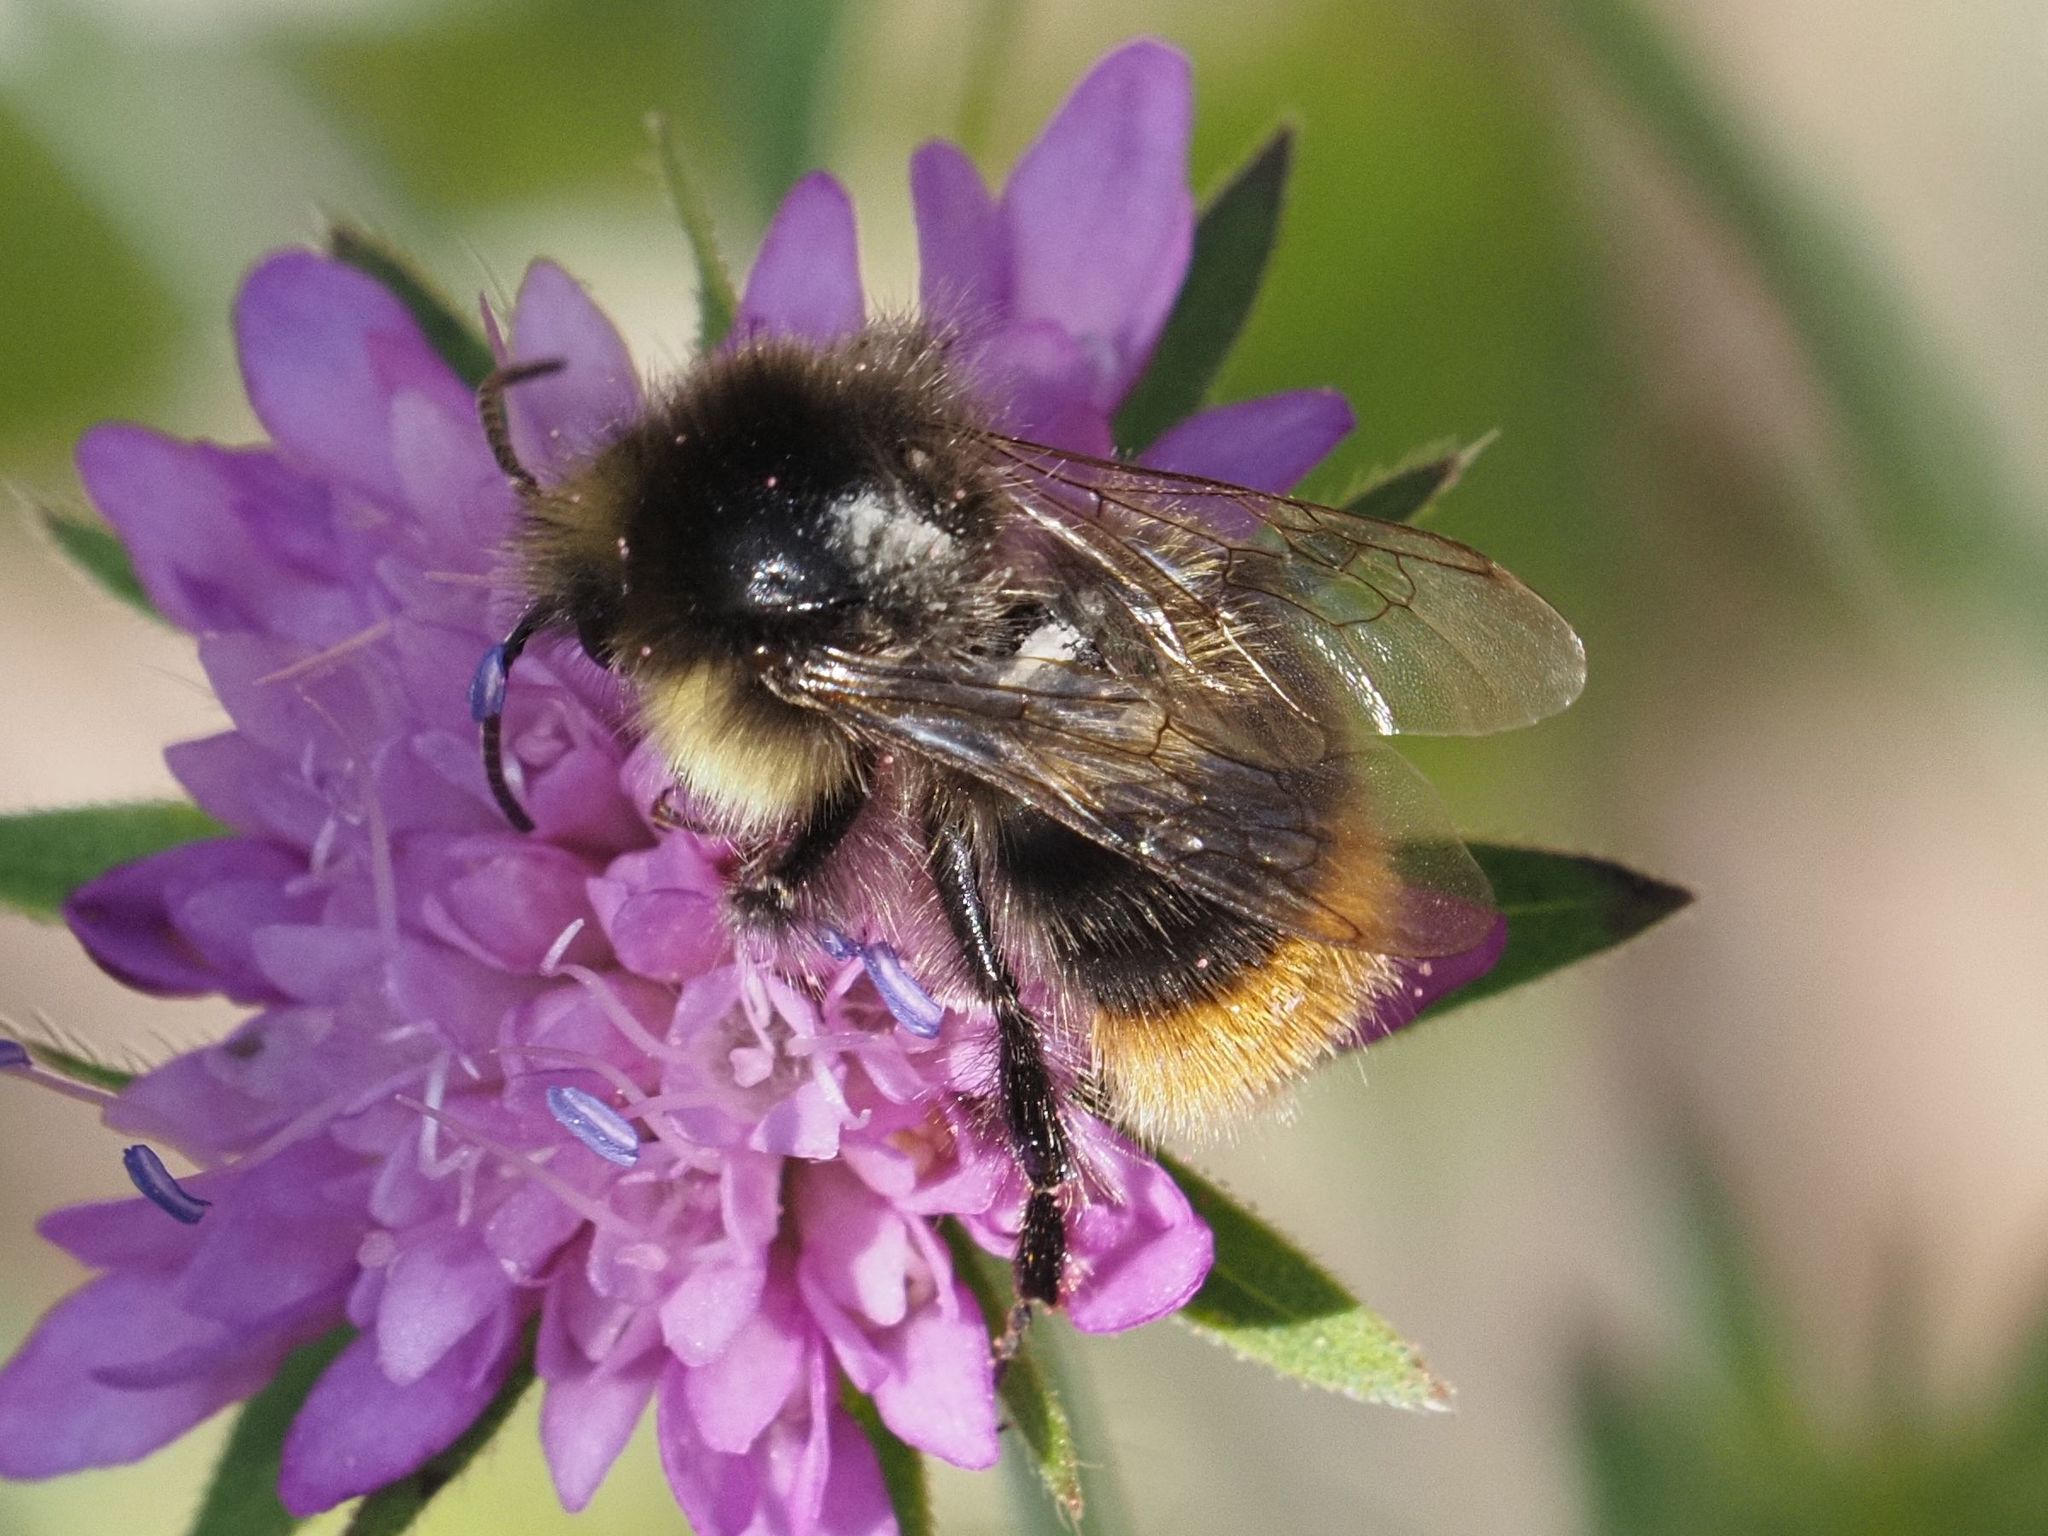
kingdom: Animalia
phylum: Arthropoda
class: Insecta
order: Hymenoptera
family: Apidae
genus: Bombus
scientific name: Bombus soroeensis
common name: Broken-belted humble-bee
